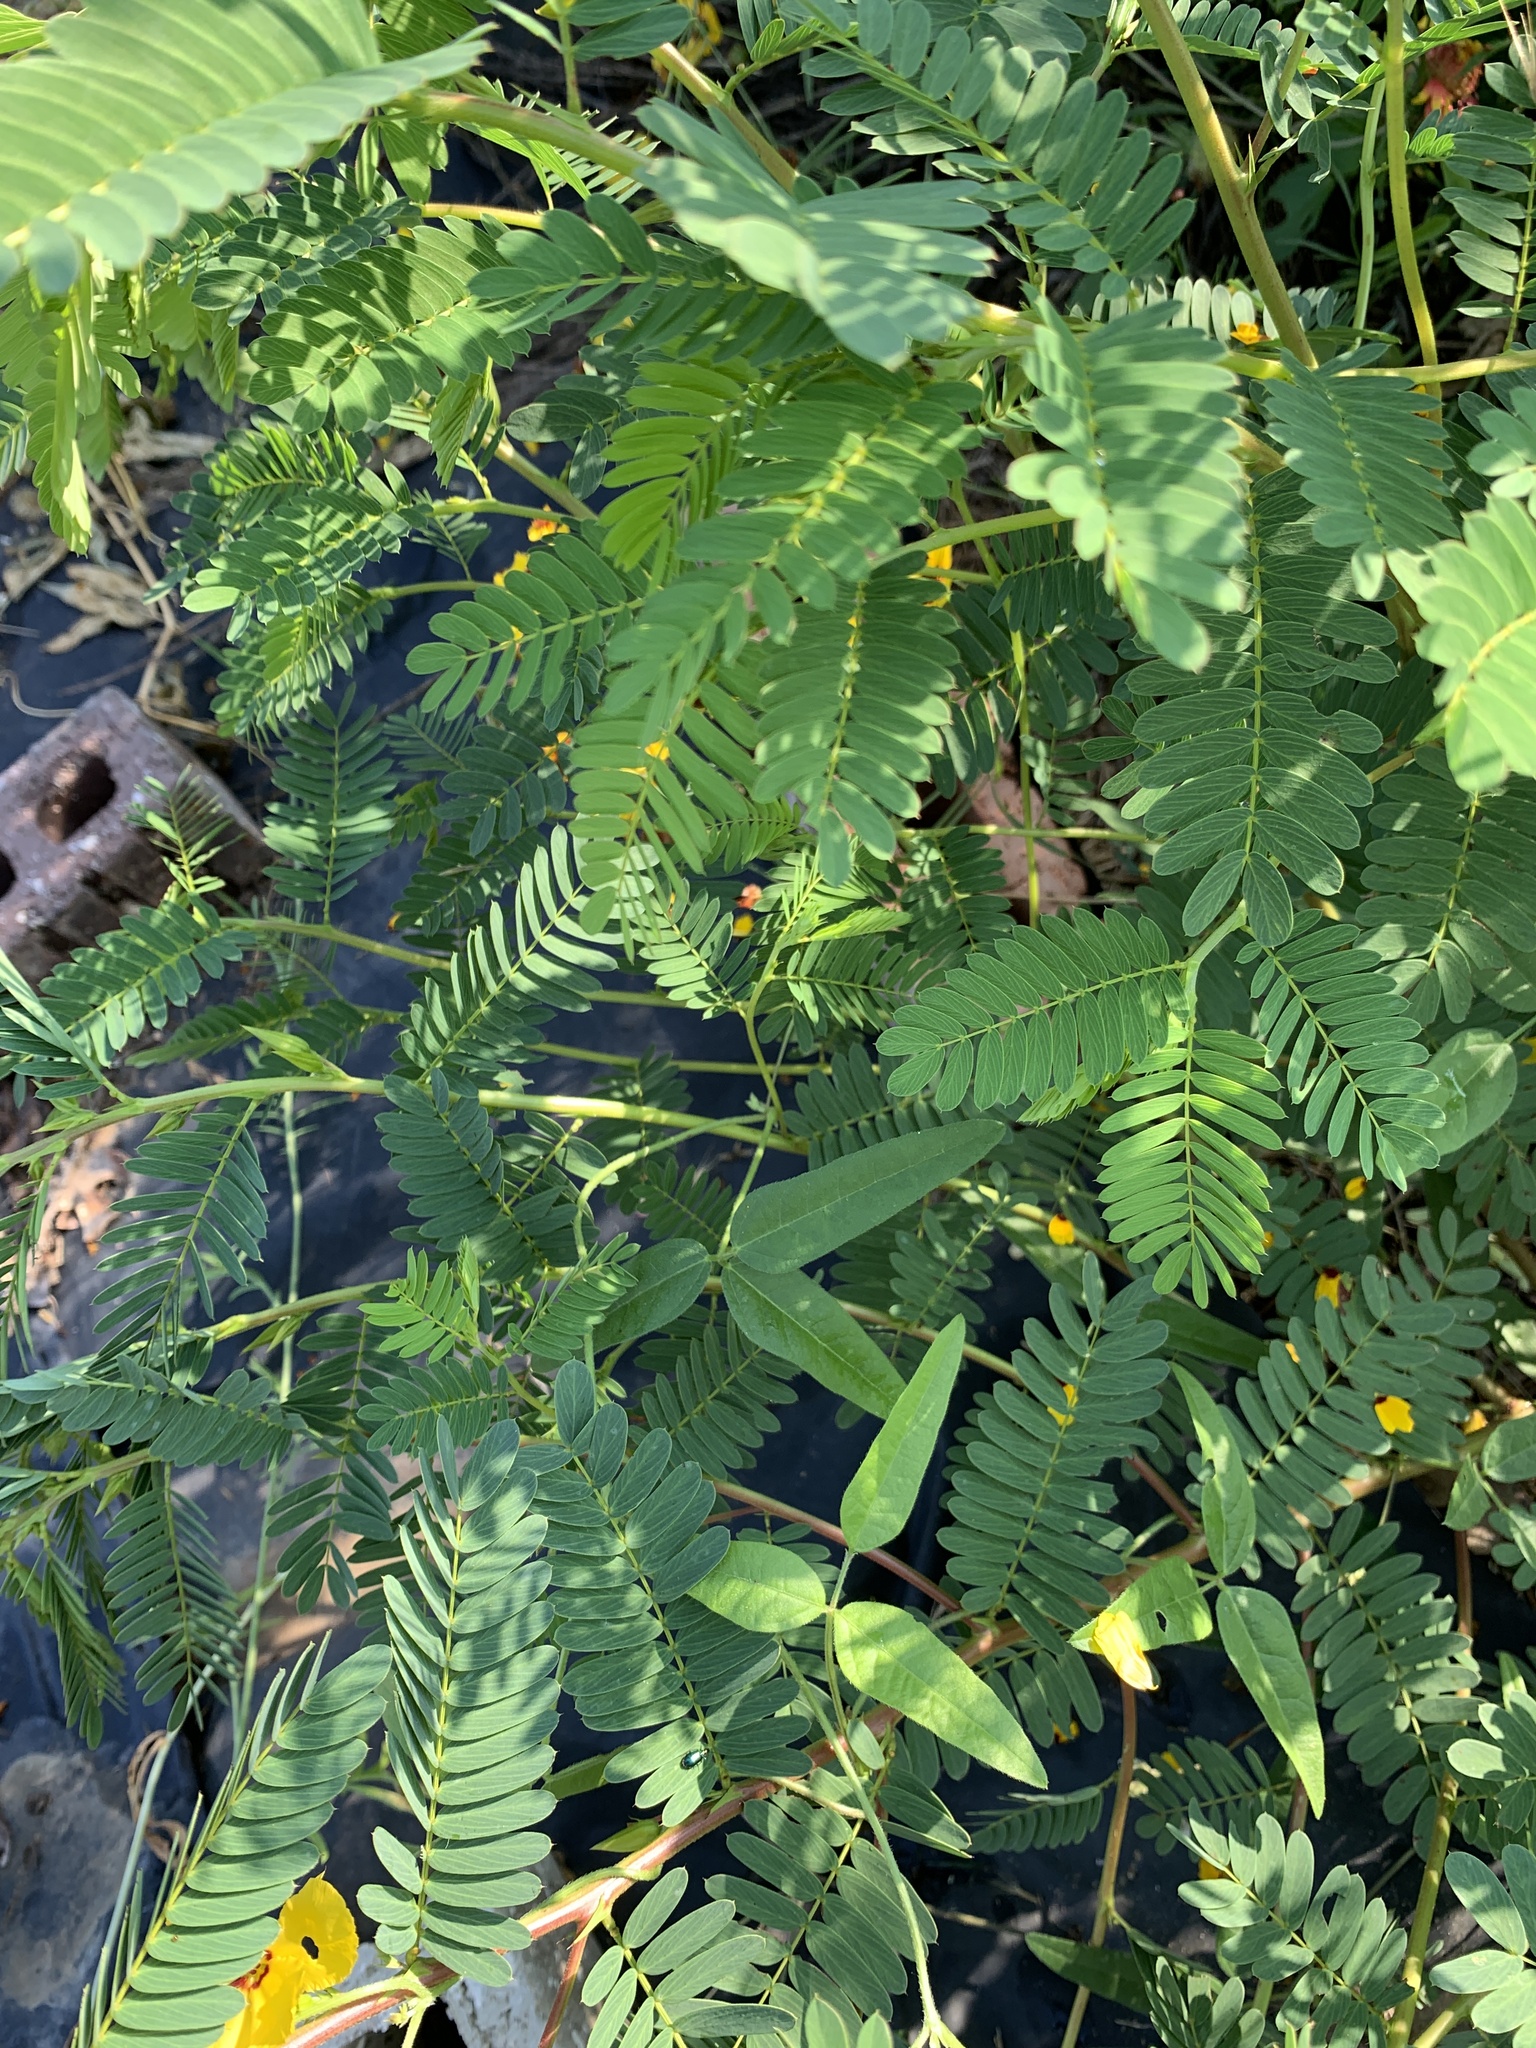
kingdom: Plantae
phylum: Tracheophyta
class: Magnoliopsida
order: Fabales
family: Fabaceae
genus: Chamaecrista
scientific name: Chamaecrista fasciculata
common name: Golden cassia
